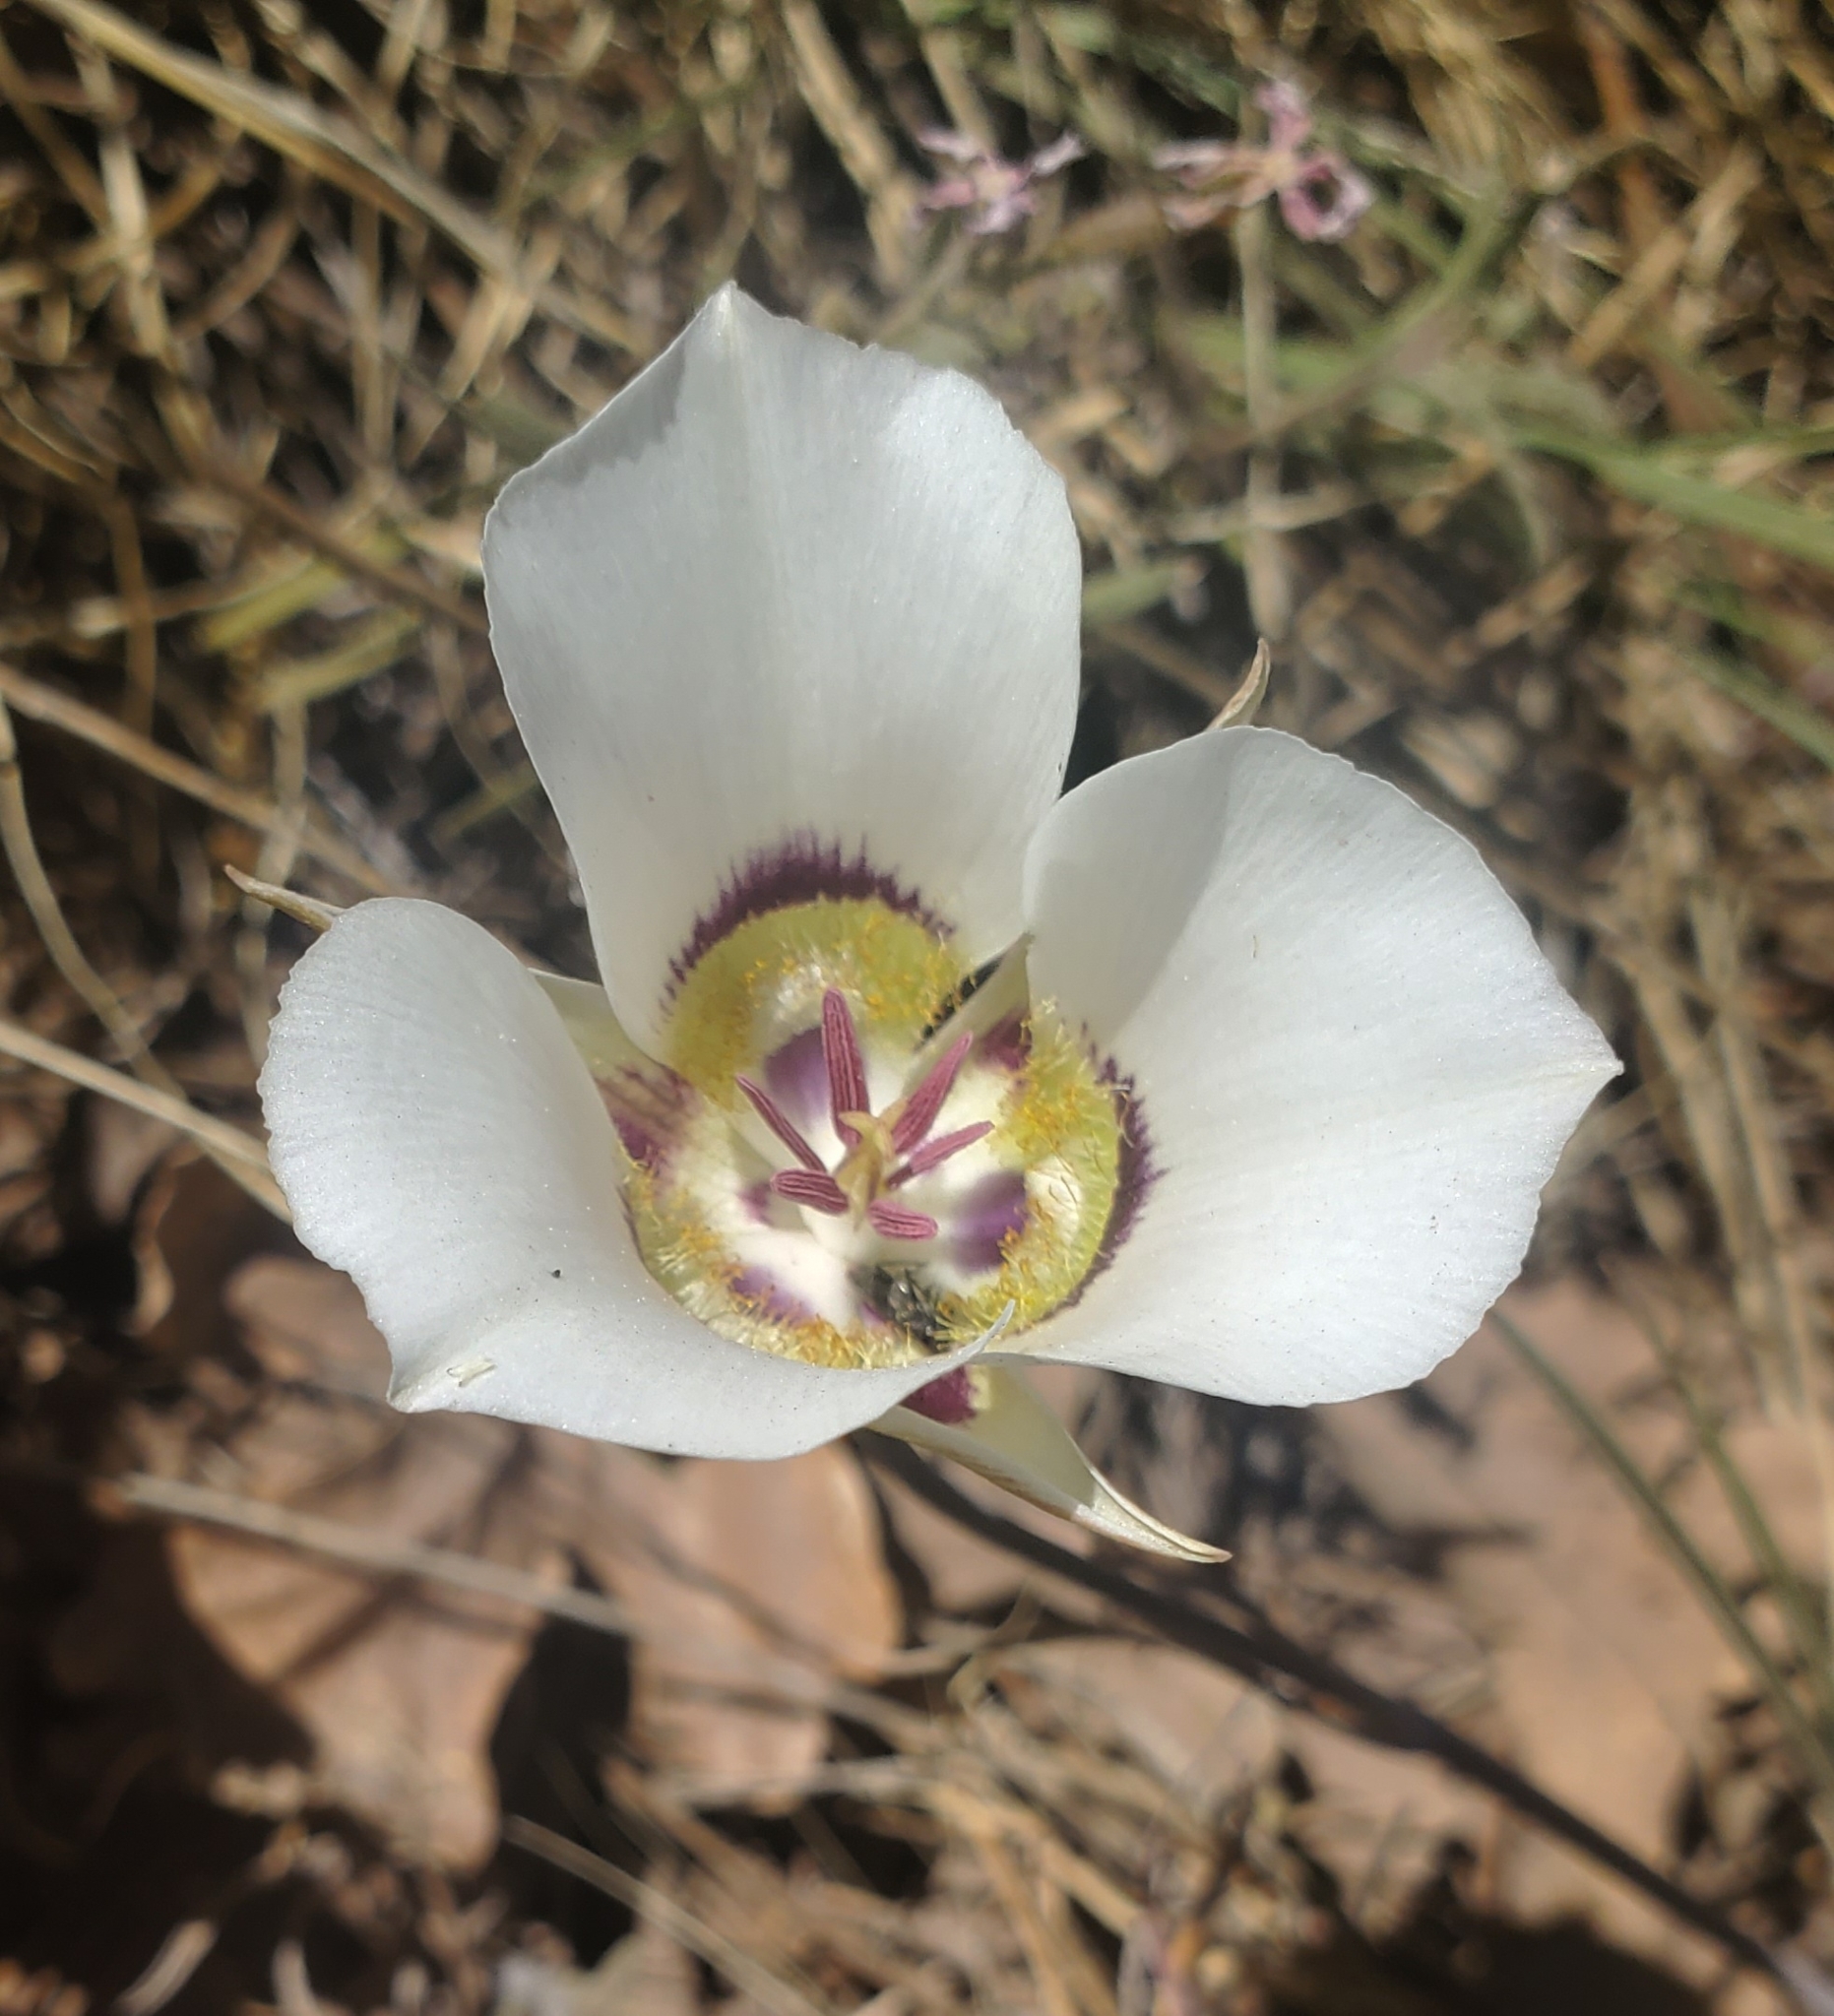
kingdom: Plantae
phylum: Tracheophyta
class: Liliopsida
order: Liliales
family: Liliaceae
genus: Calochortus
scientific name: Calochortus ambiguus
